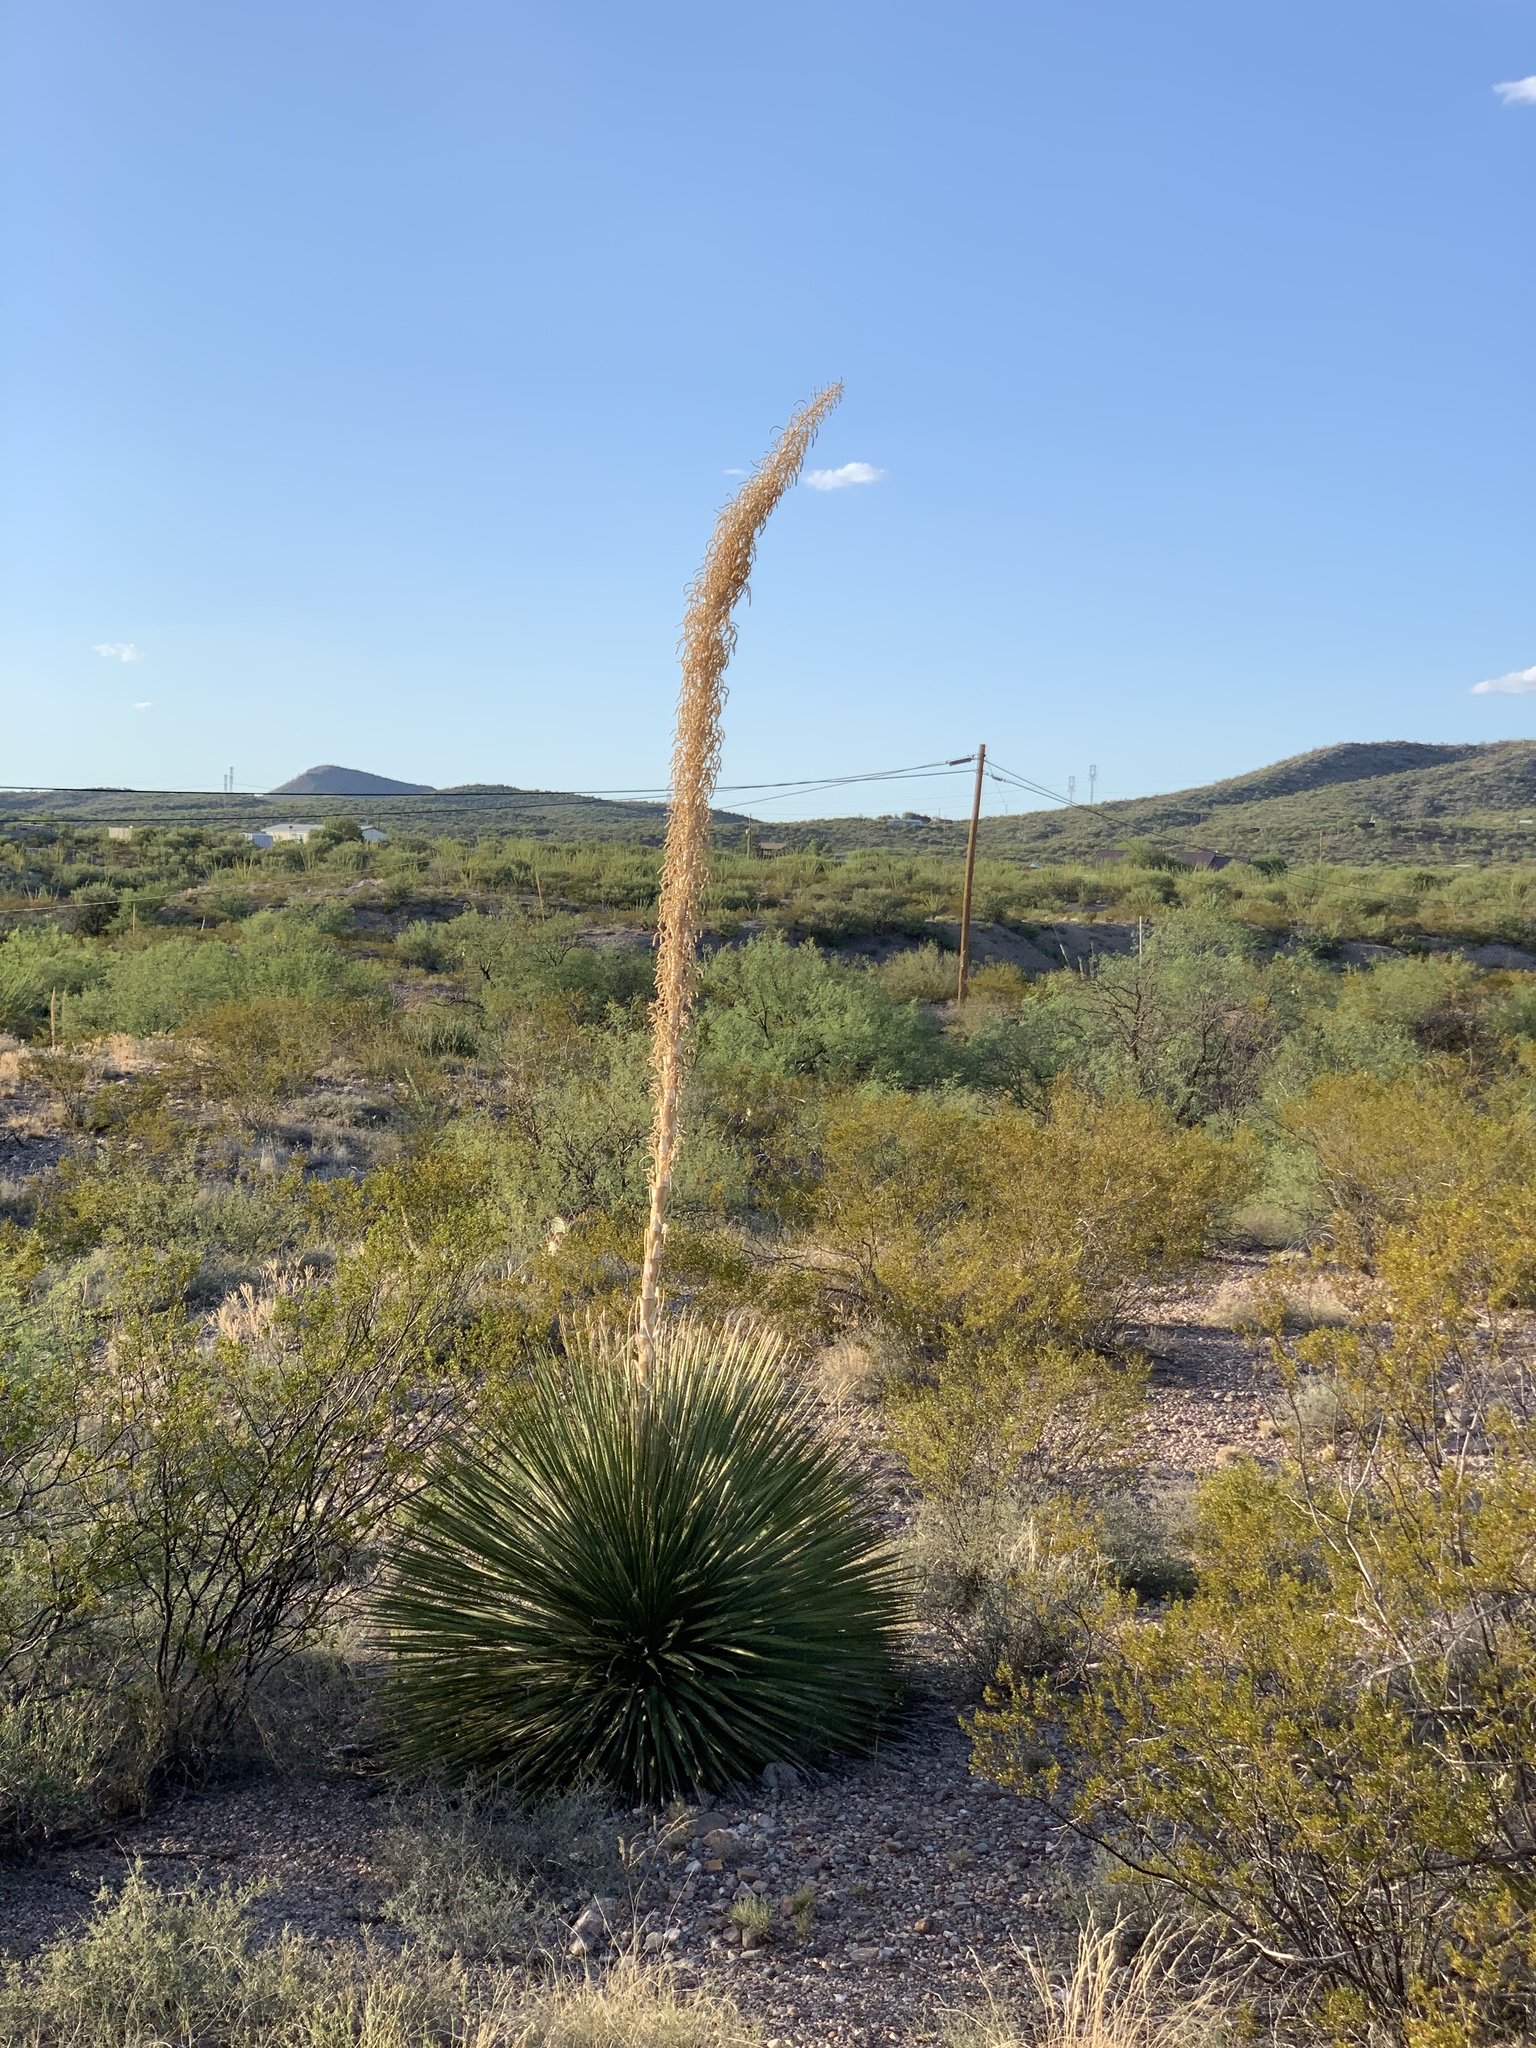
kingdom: Plantae
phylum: Tracheophyta
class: Liliopsida
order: Asparagales
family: Asparagaceae
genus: Dasylirion
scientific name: Dasylirion wheeleri
